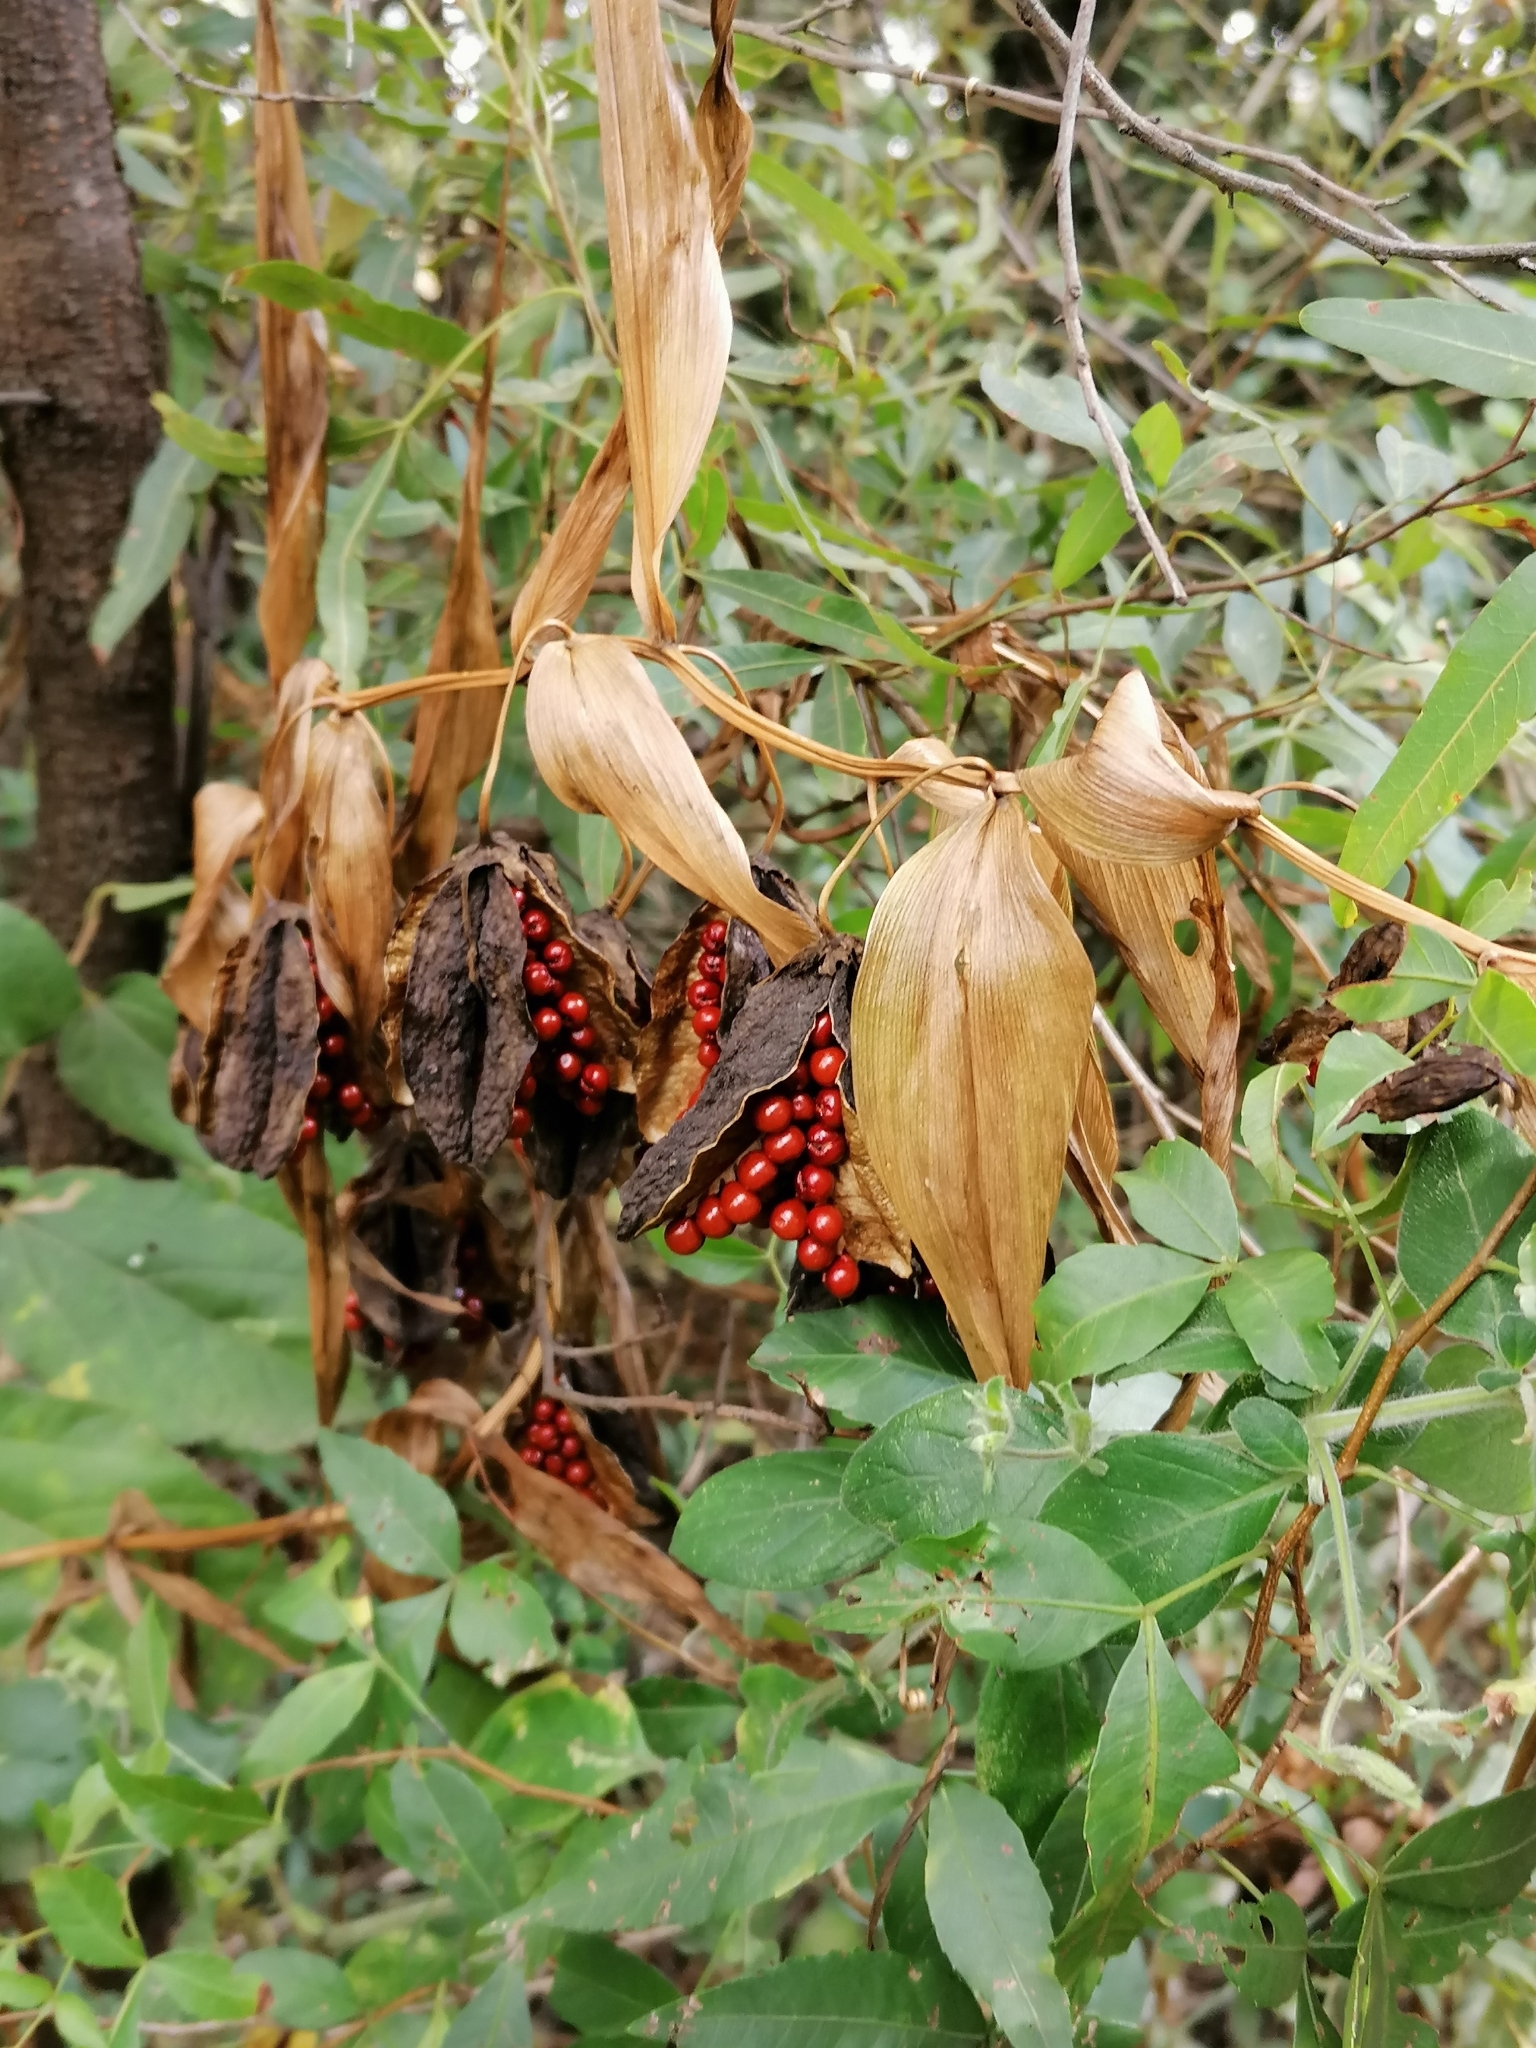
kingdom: Plantae
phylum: Tracheophyta
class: Liliopsida
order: Liliales
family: Colchicaceae
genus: Gloriosa
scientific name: Gloriosa superba
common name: Flame lily
